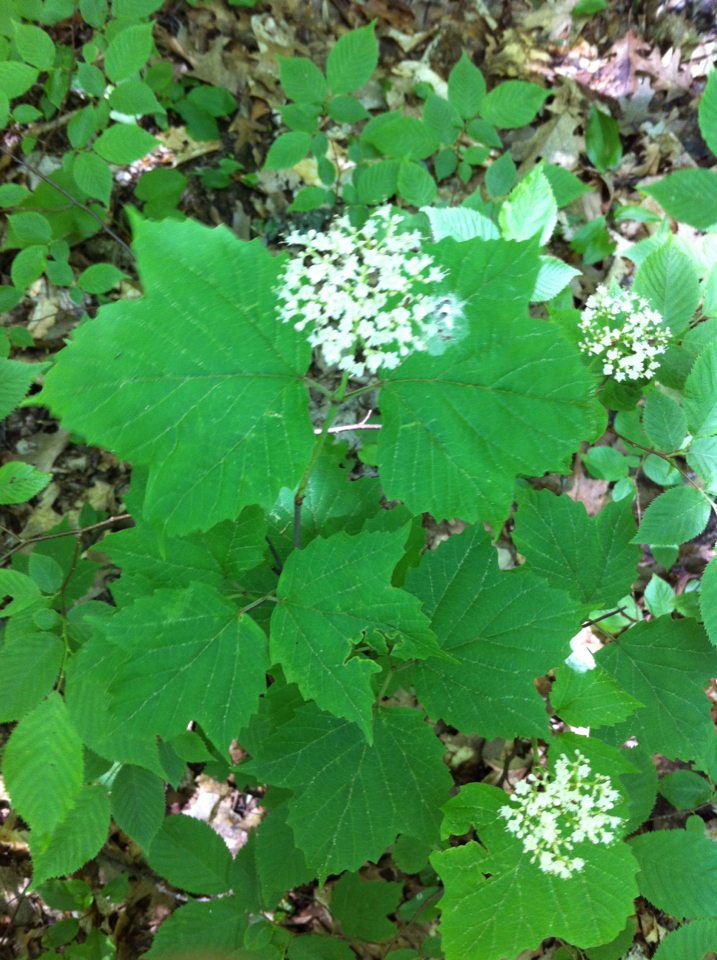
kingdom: Plantae
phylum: Tracheophyta
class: Magnoliopsida
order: Dipsacales
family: Viburnaceae
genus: Viburnum
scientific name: Viburnum acerifolium
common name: Dockmackie
